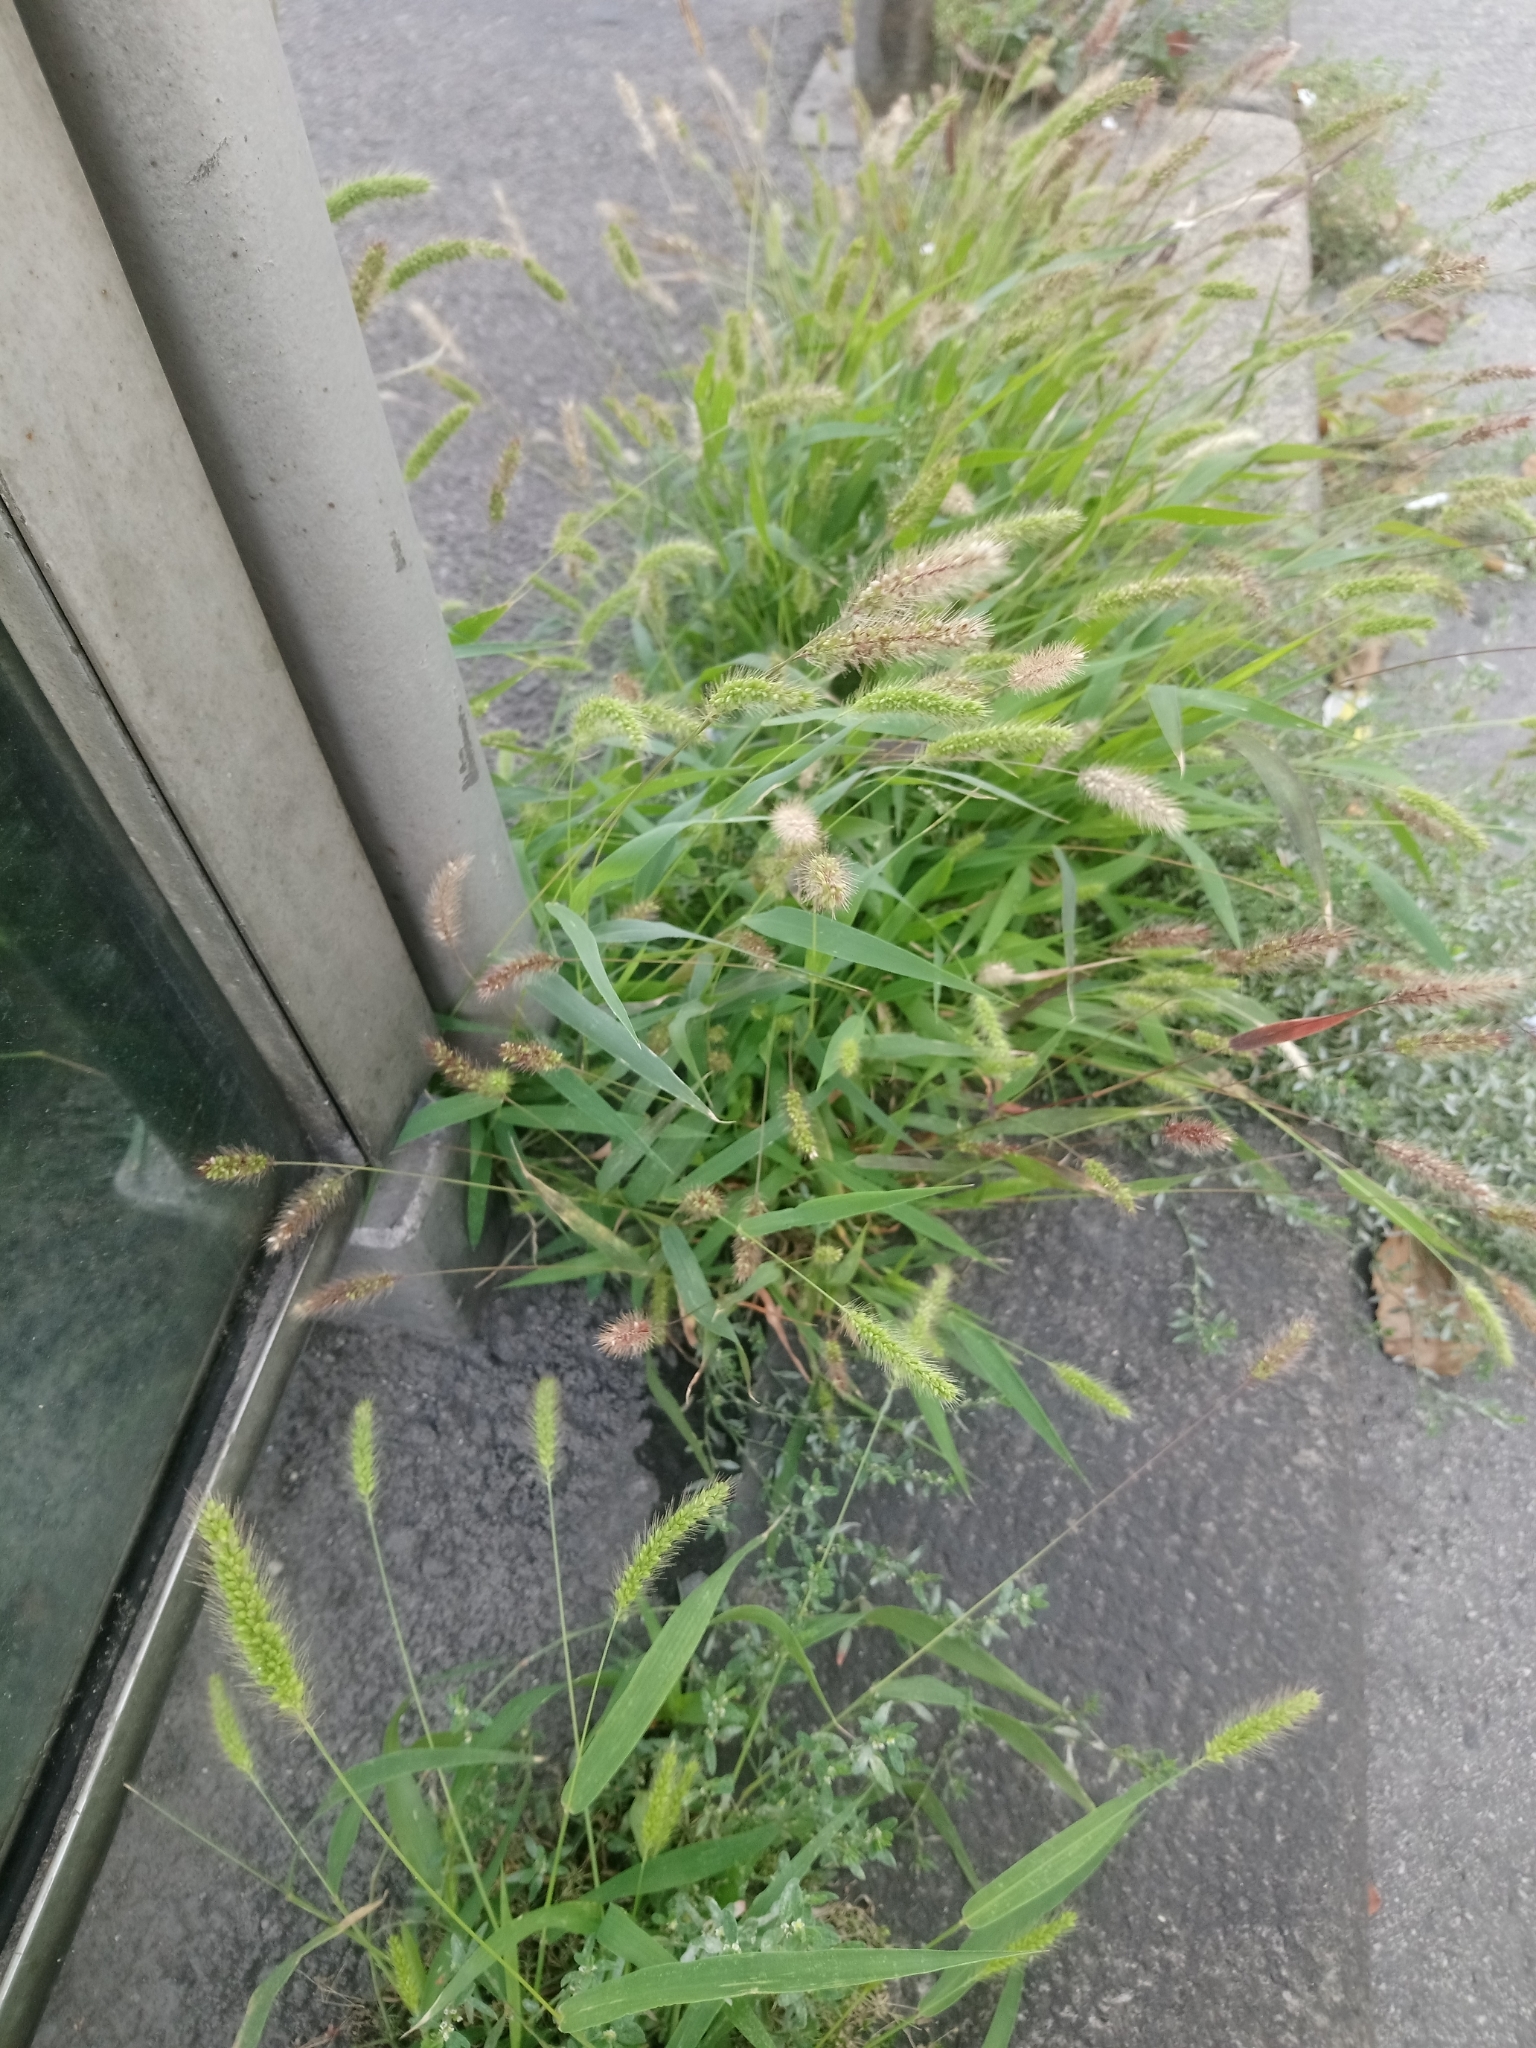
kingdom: Plantae
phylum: Tracheophyta
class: Liliopsida
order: Poales
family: Poaceae
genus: Setaria
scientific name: Setaria viridis
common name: Green bristlegrass
